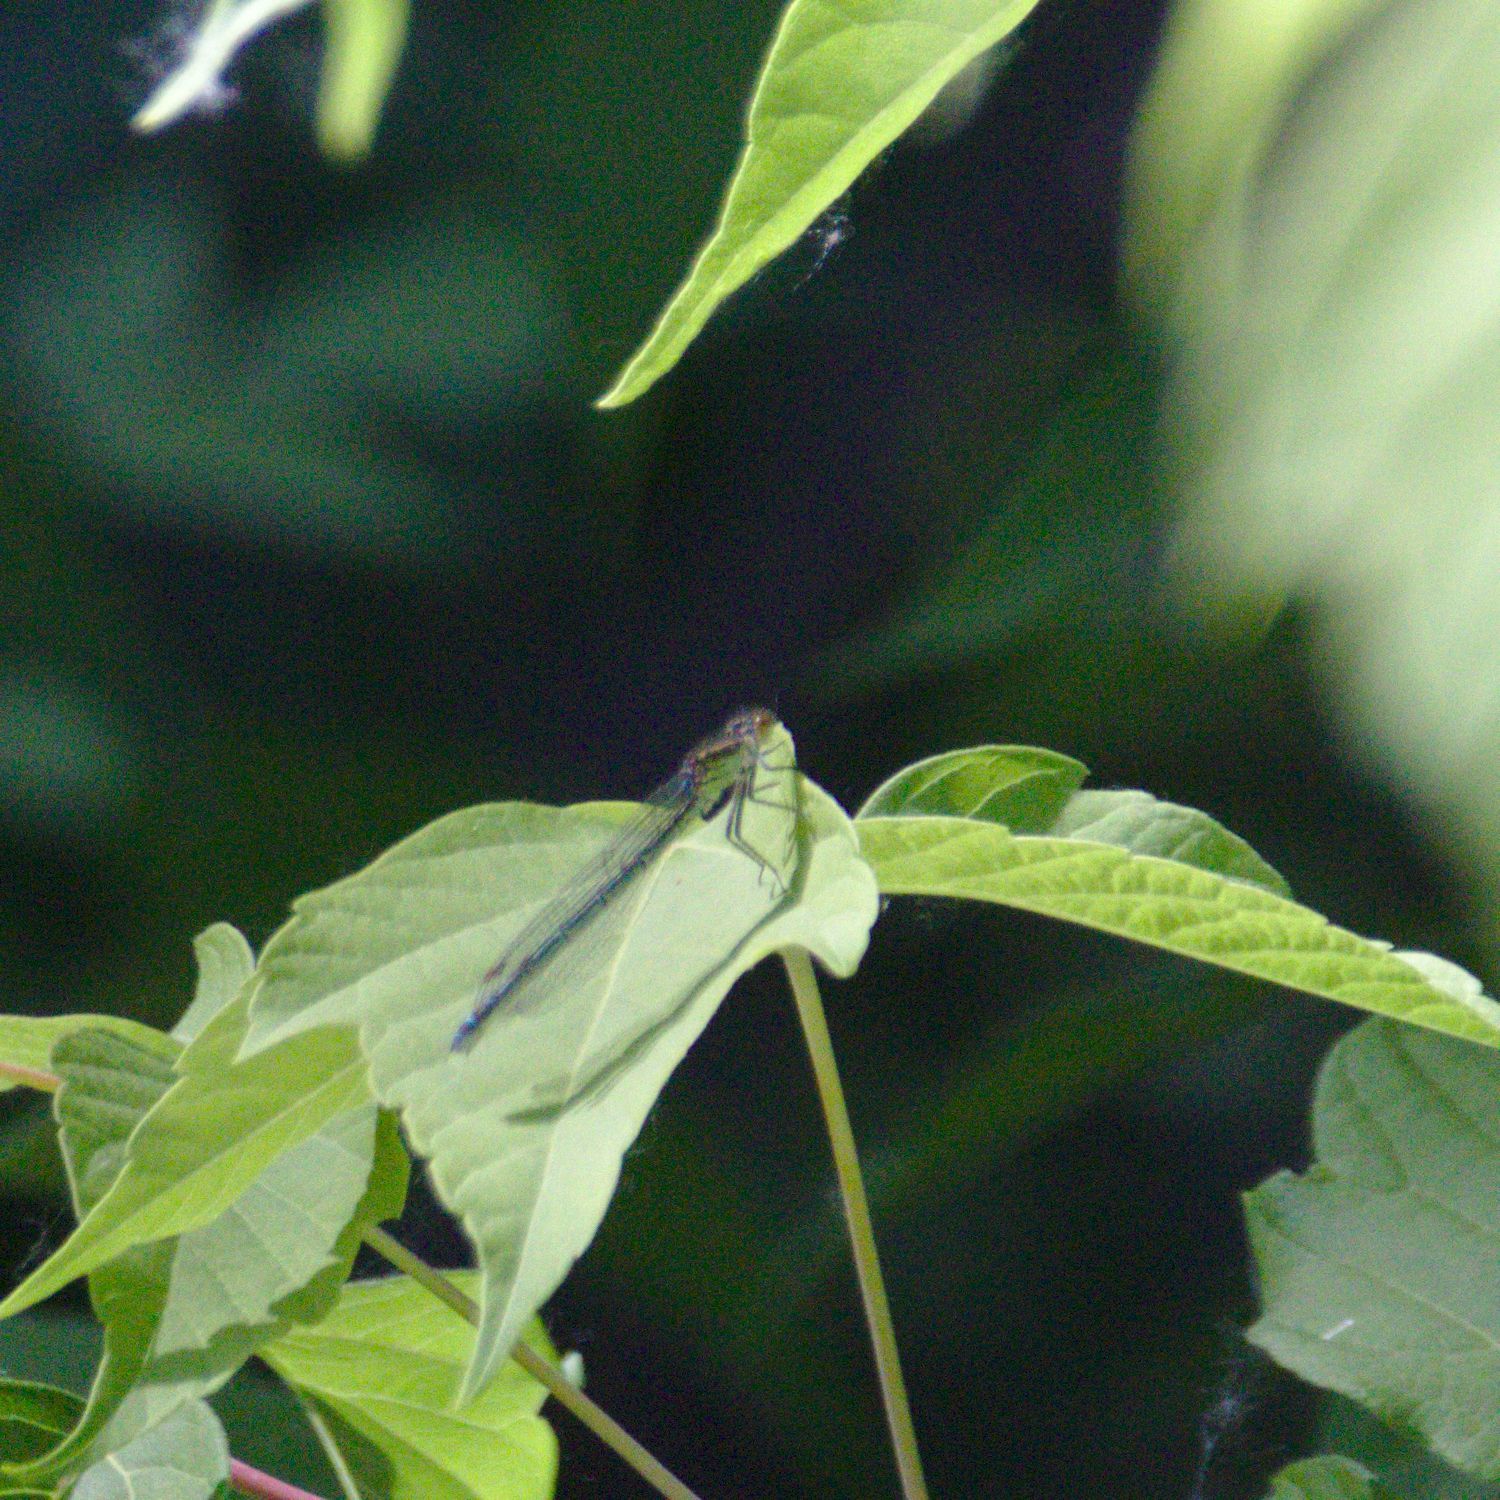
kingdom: Animalia
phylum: Arthropoda
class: Insecta
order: Odonata
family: Coenagrionidae
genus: Erythromma
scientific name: Erythromma najas
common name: Red-eyed damselfly
